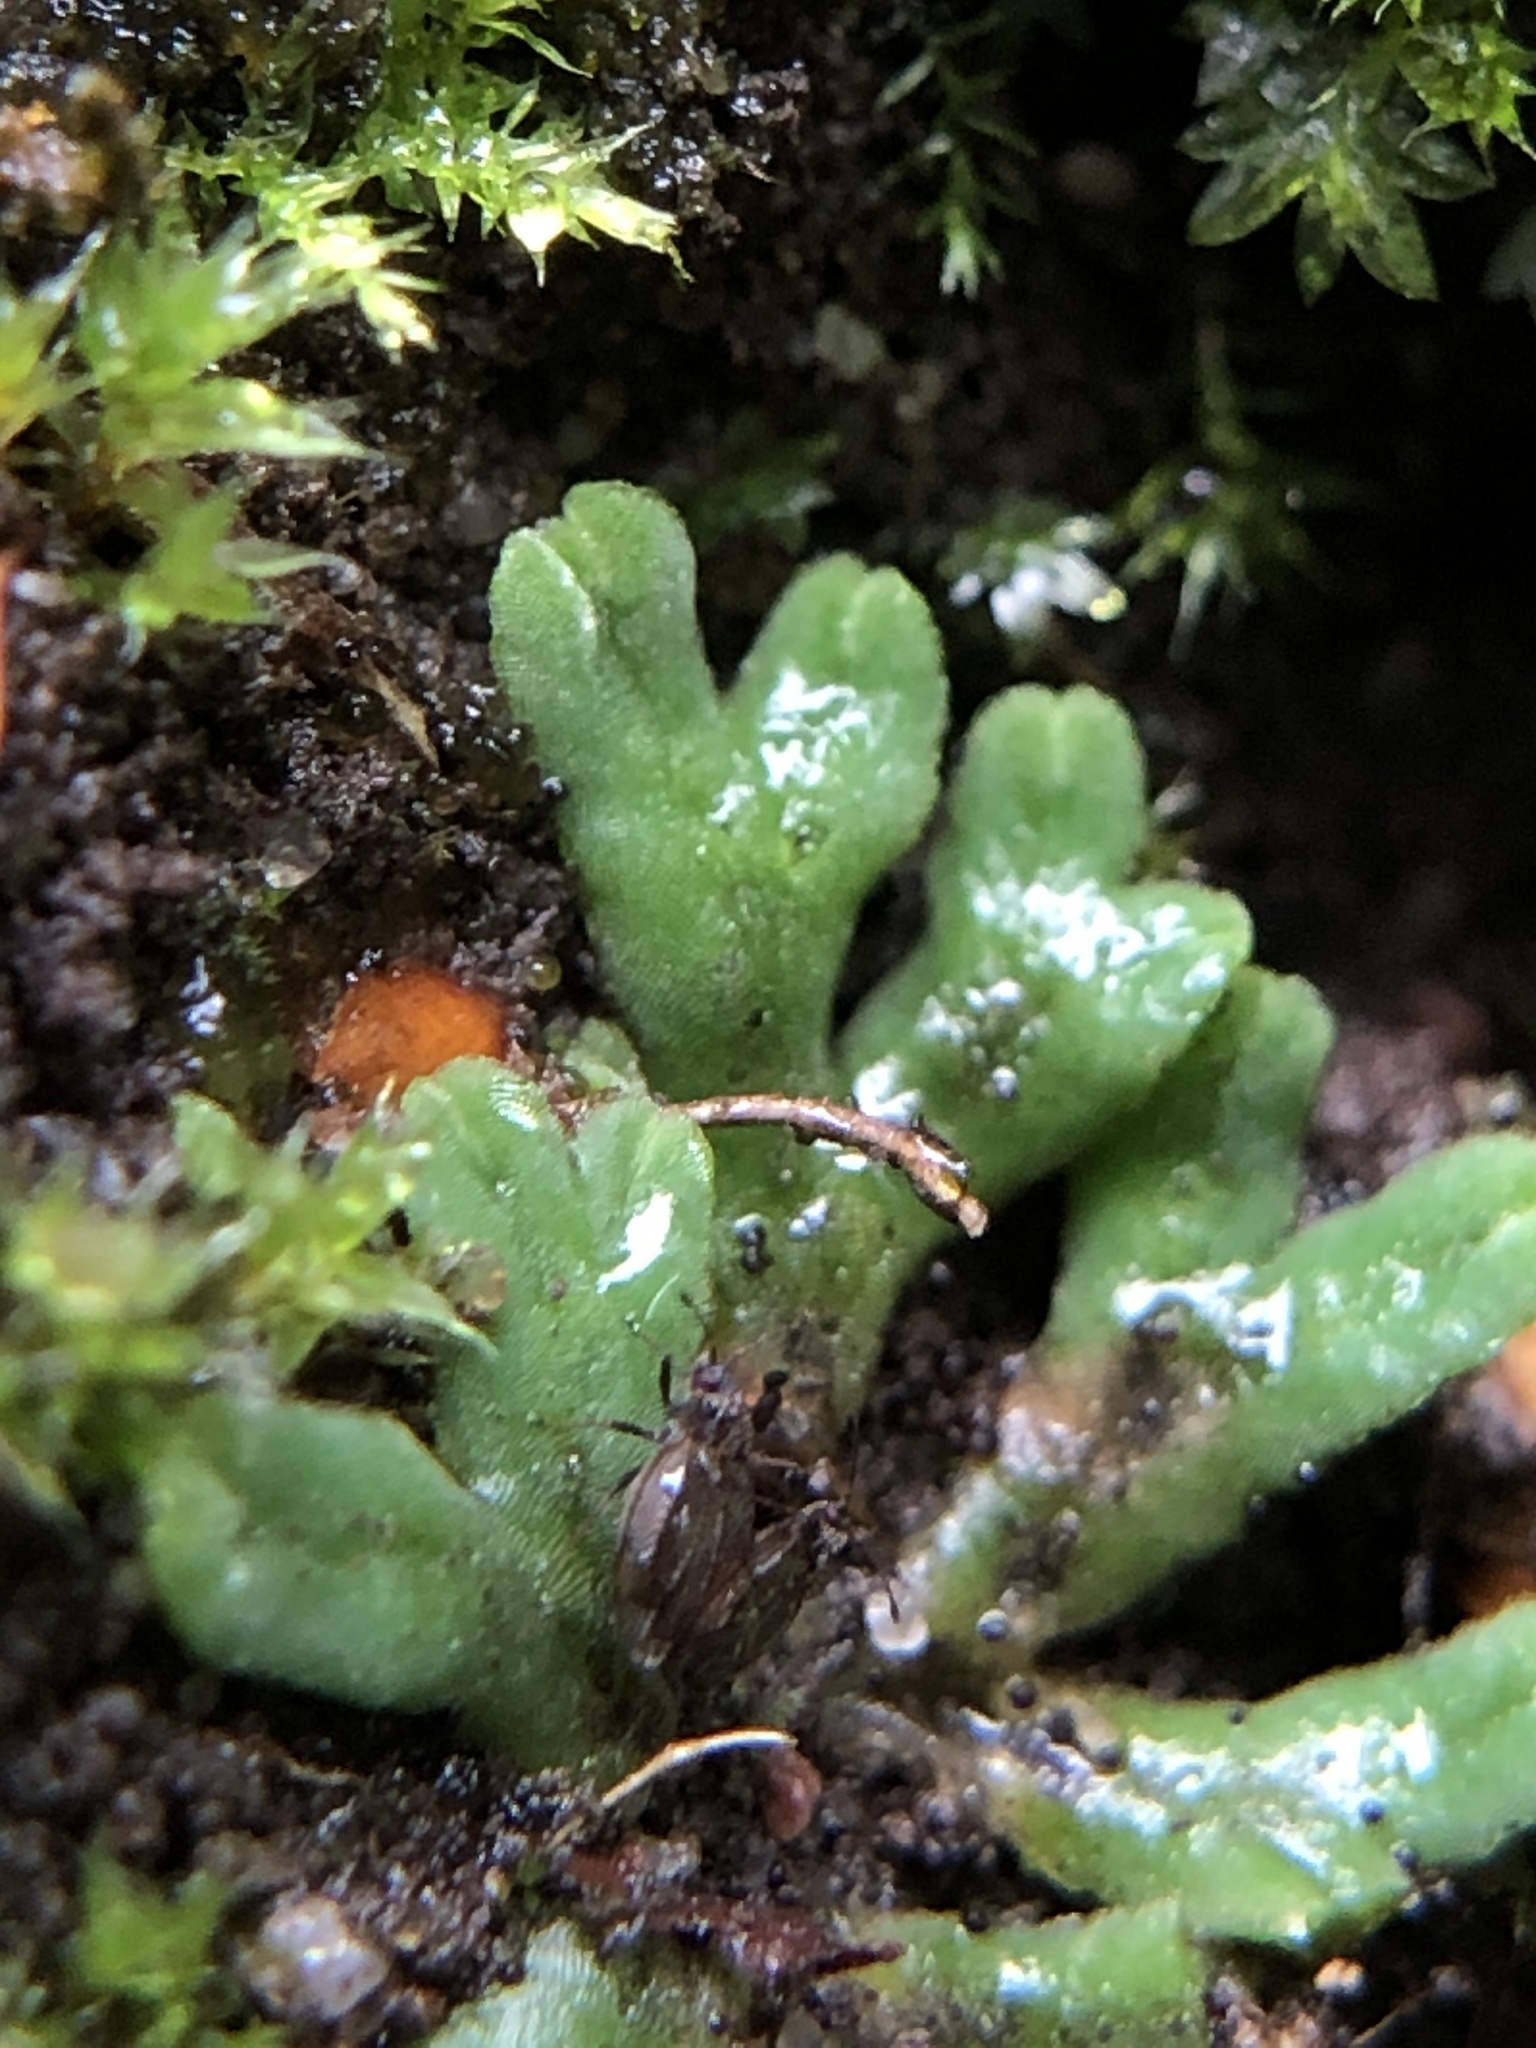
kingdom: Plantae
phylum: Marchantiophyta
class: Marchantiopsida
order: Marchantiales
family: Ricciaceae
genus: Riccia
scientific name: Riccia sorocarpa
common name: Common crystalwort
